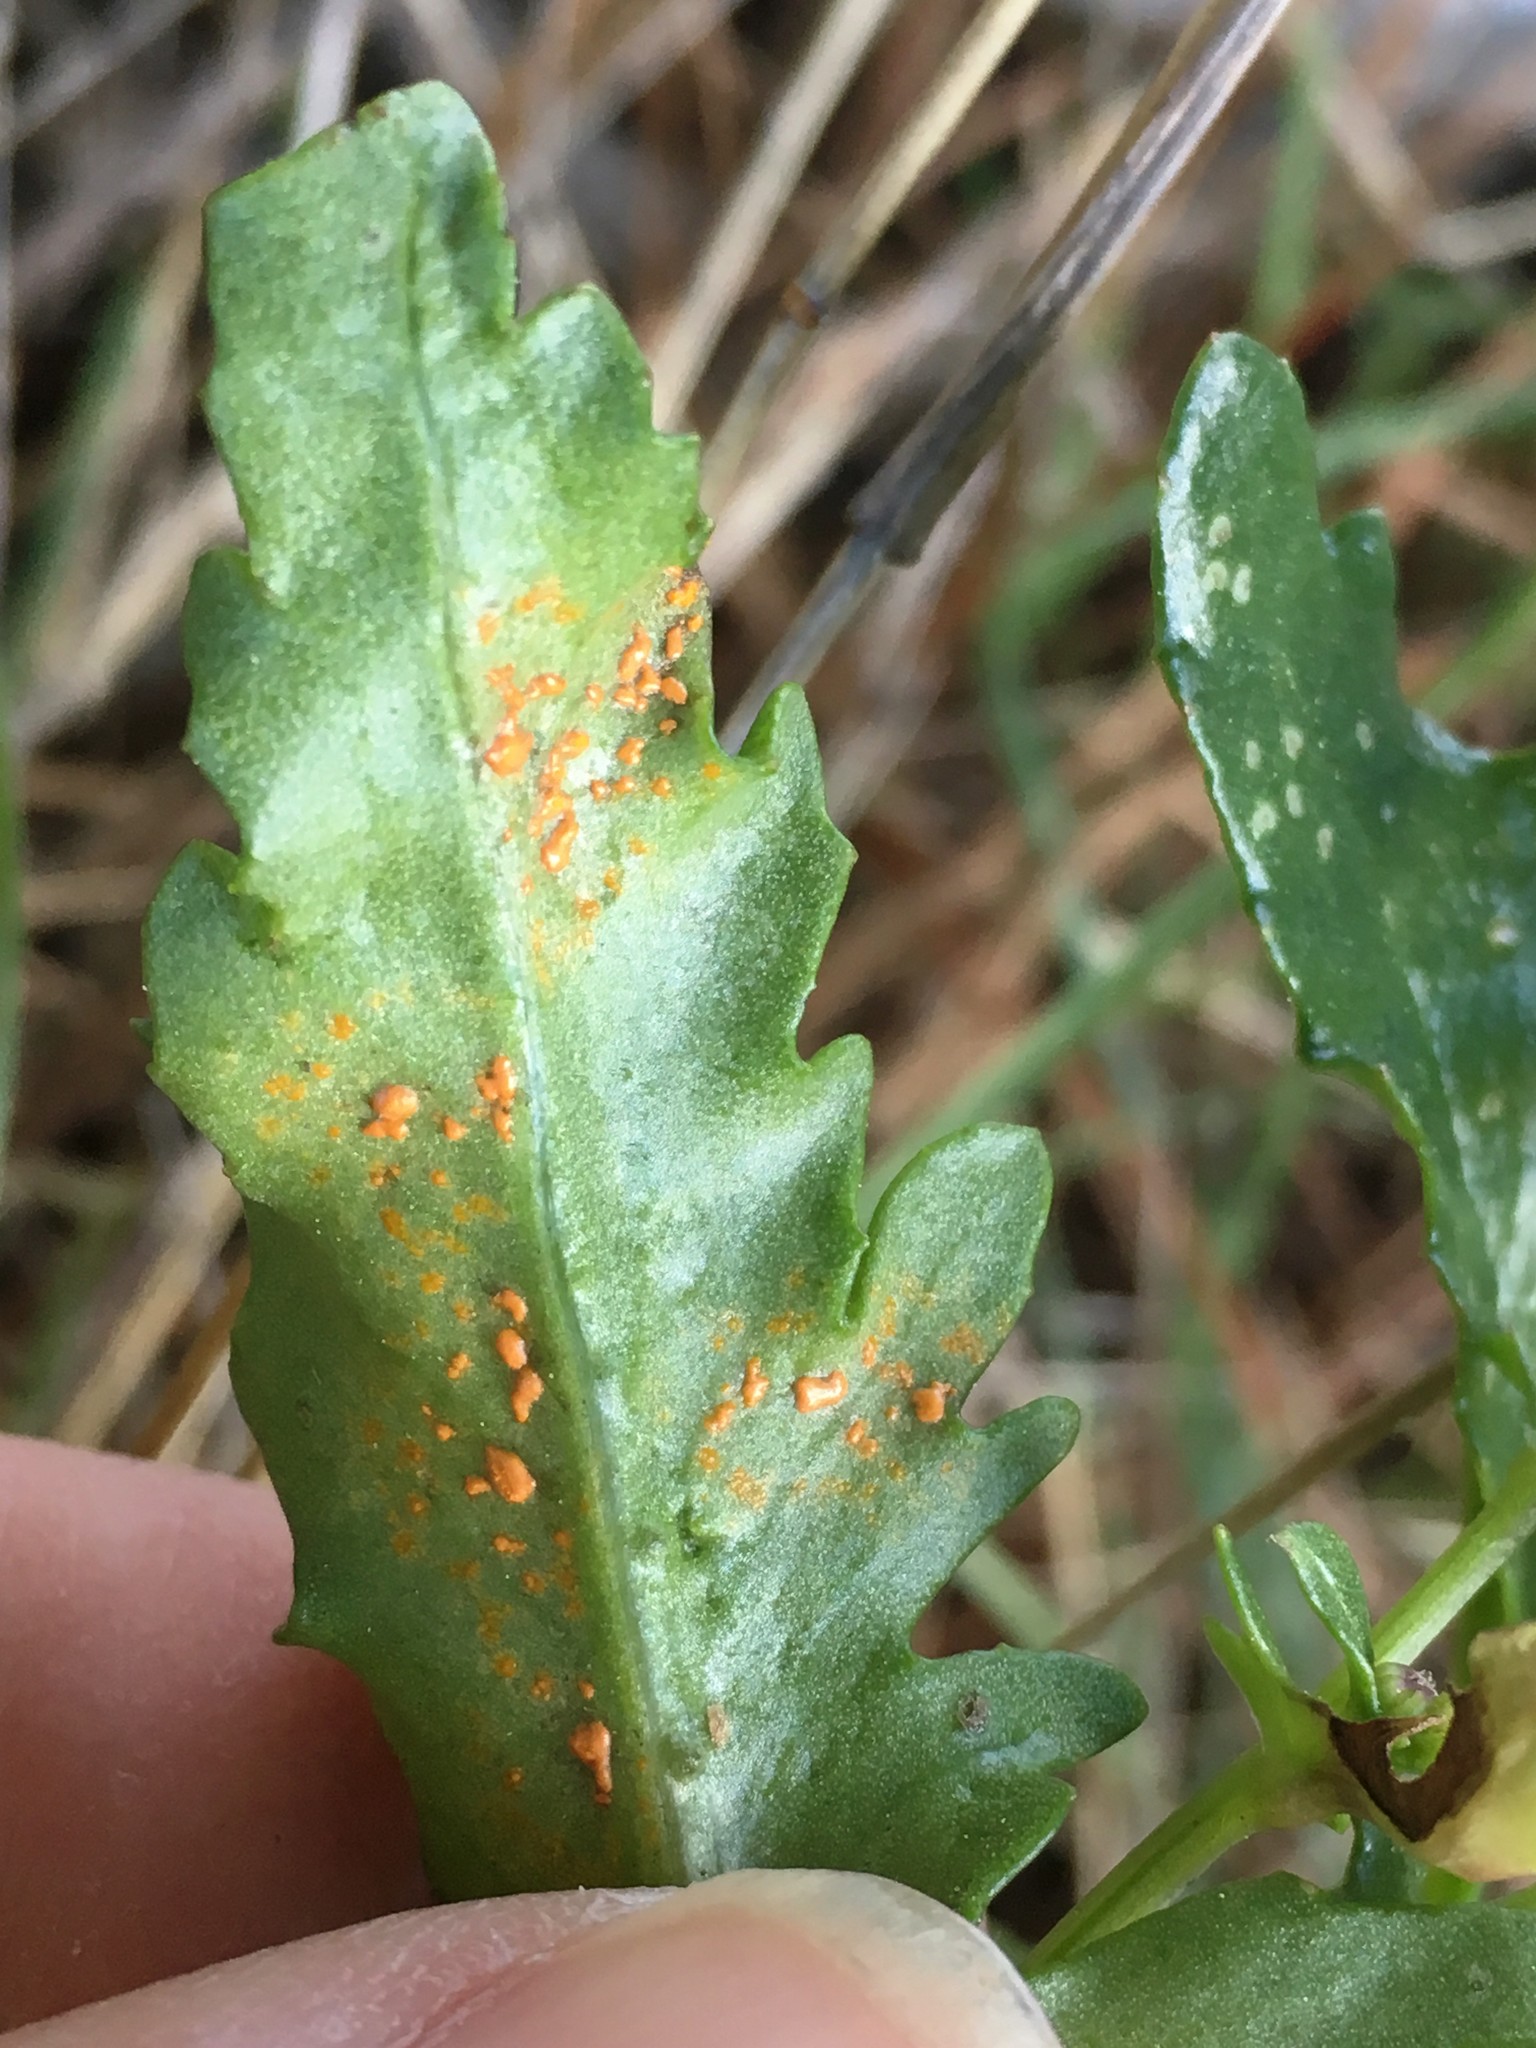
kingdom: Fungi
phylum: Basidiomycota
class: Pucciniomycetes
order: Pucciniales
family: Coleosporiaceae
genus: Coleosporium
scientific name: Coleosporium tussilaginis
